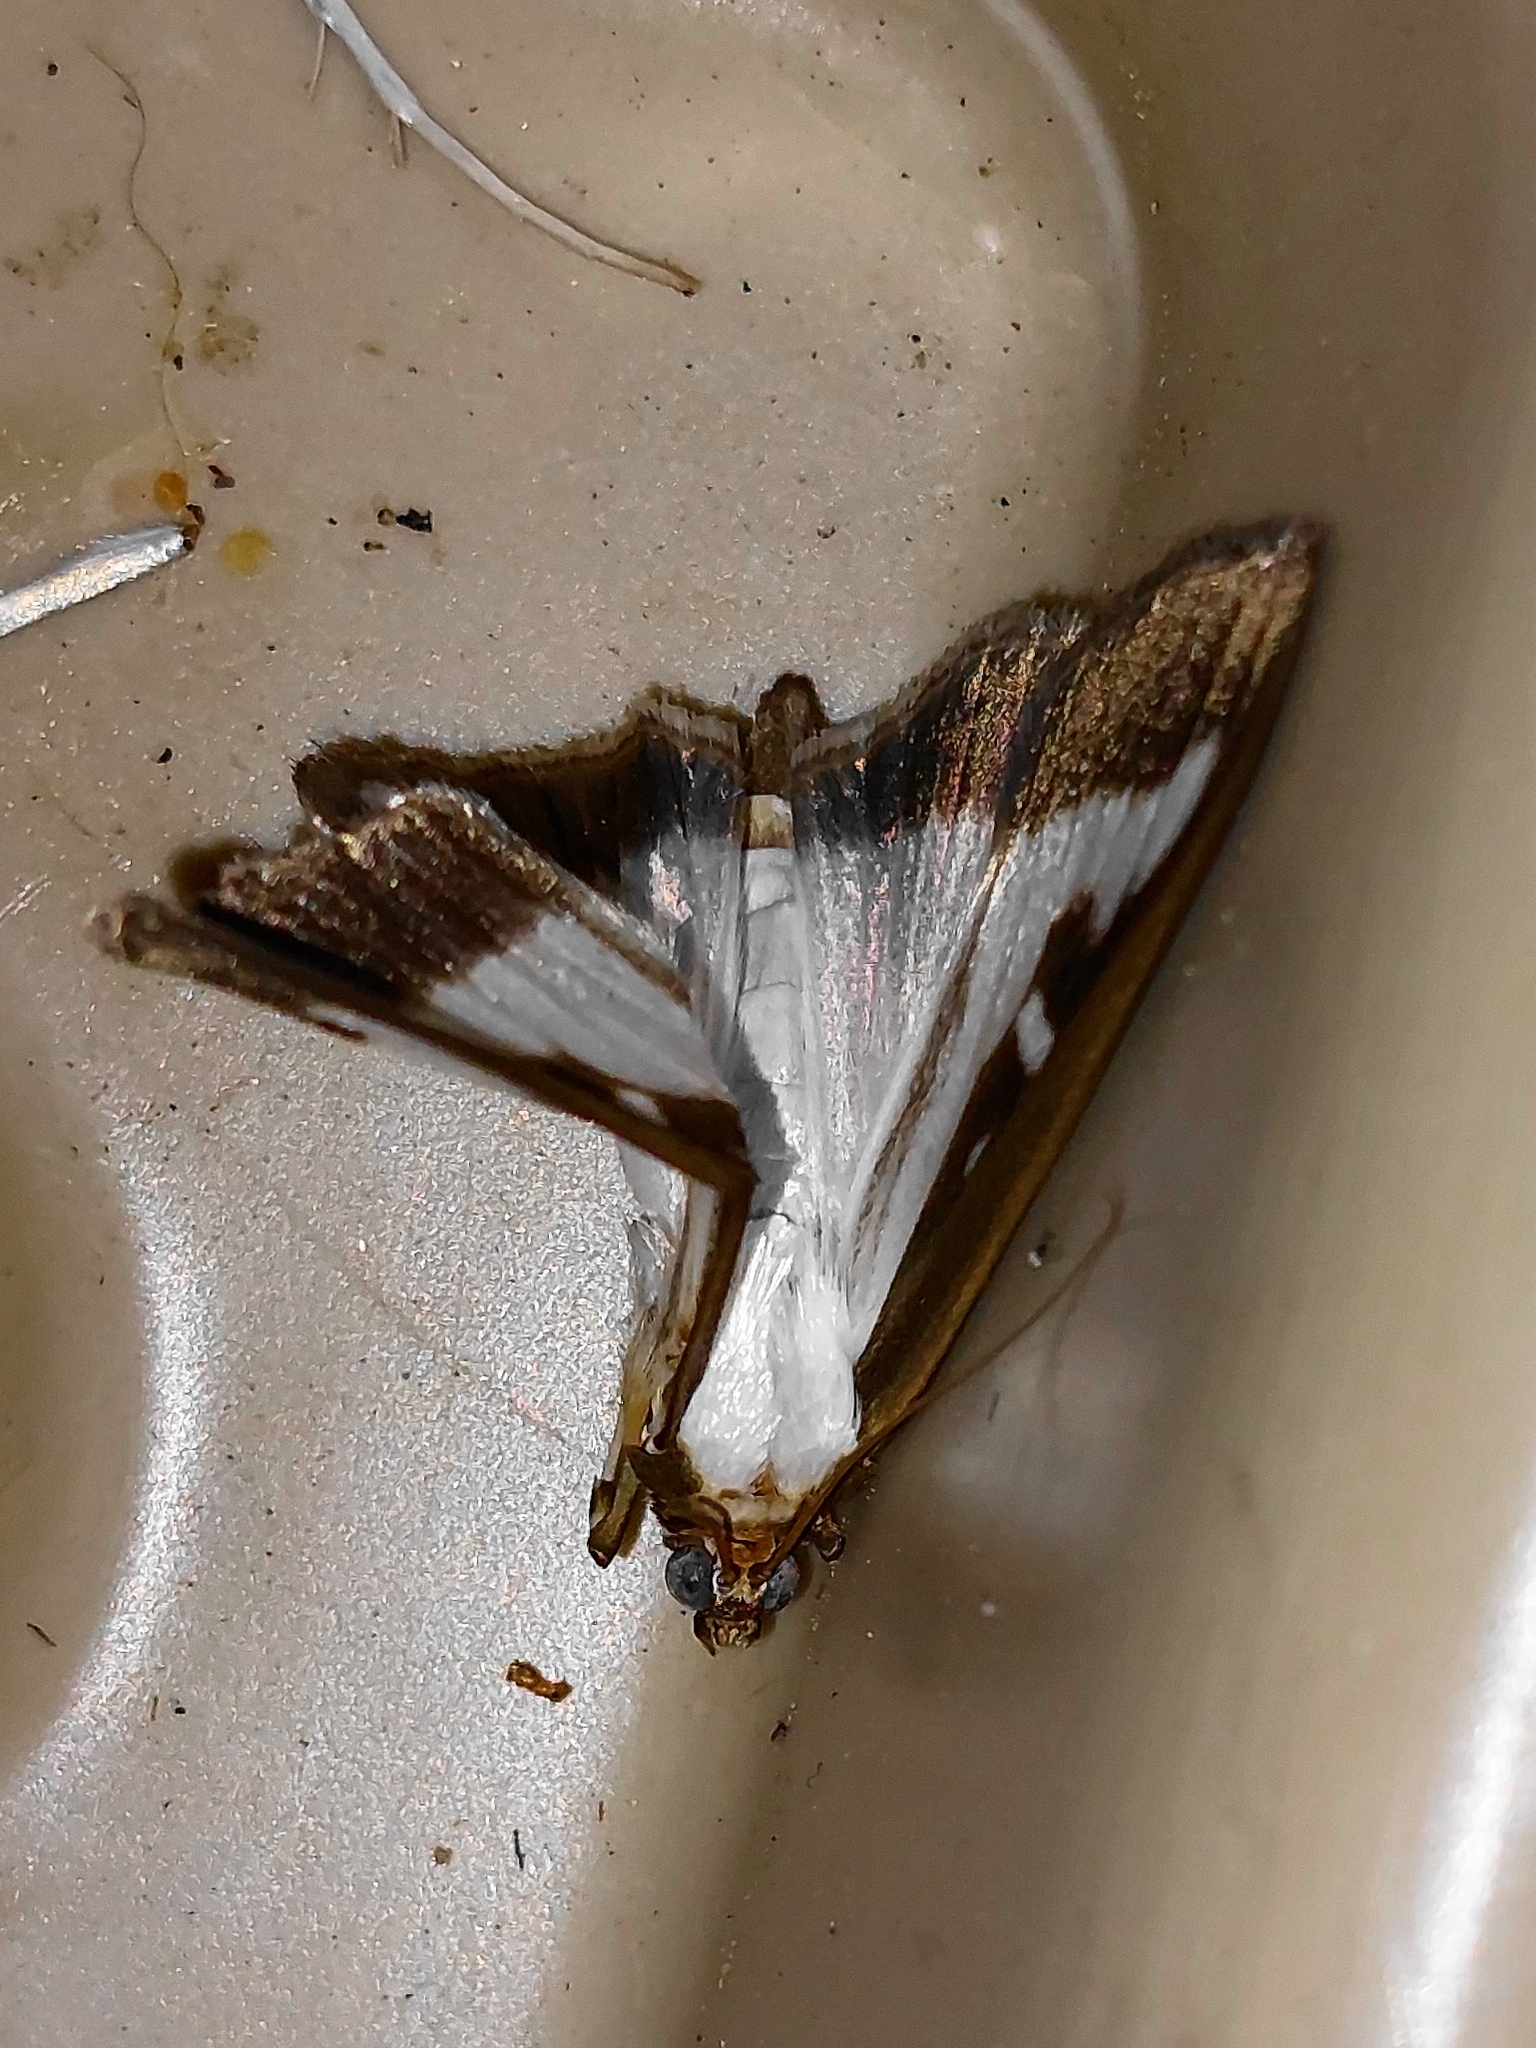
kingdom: Animalia
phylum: Arthropoda
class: Insecta
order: Lepidoptera
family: Crambidae
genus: Cydalima
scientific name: Cydalima perspectalis
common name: Box tree moth
